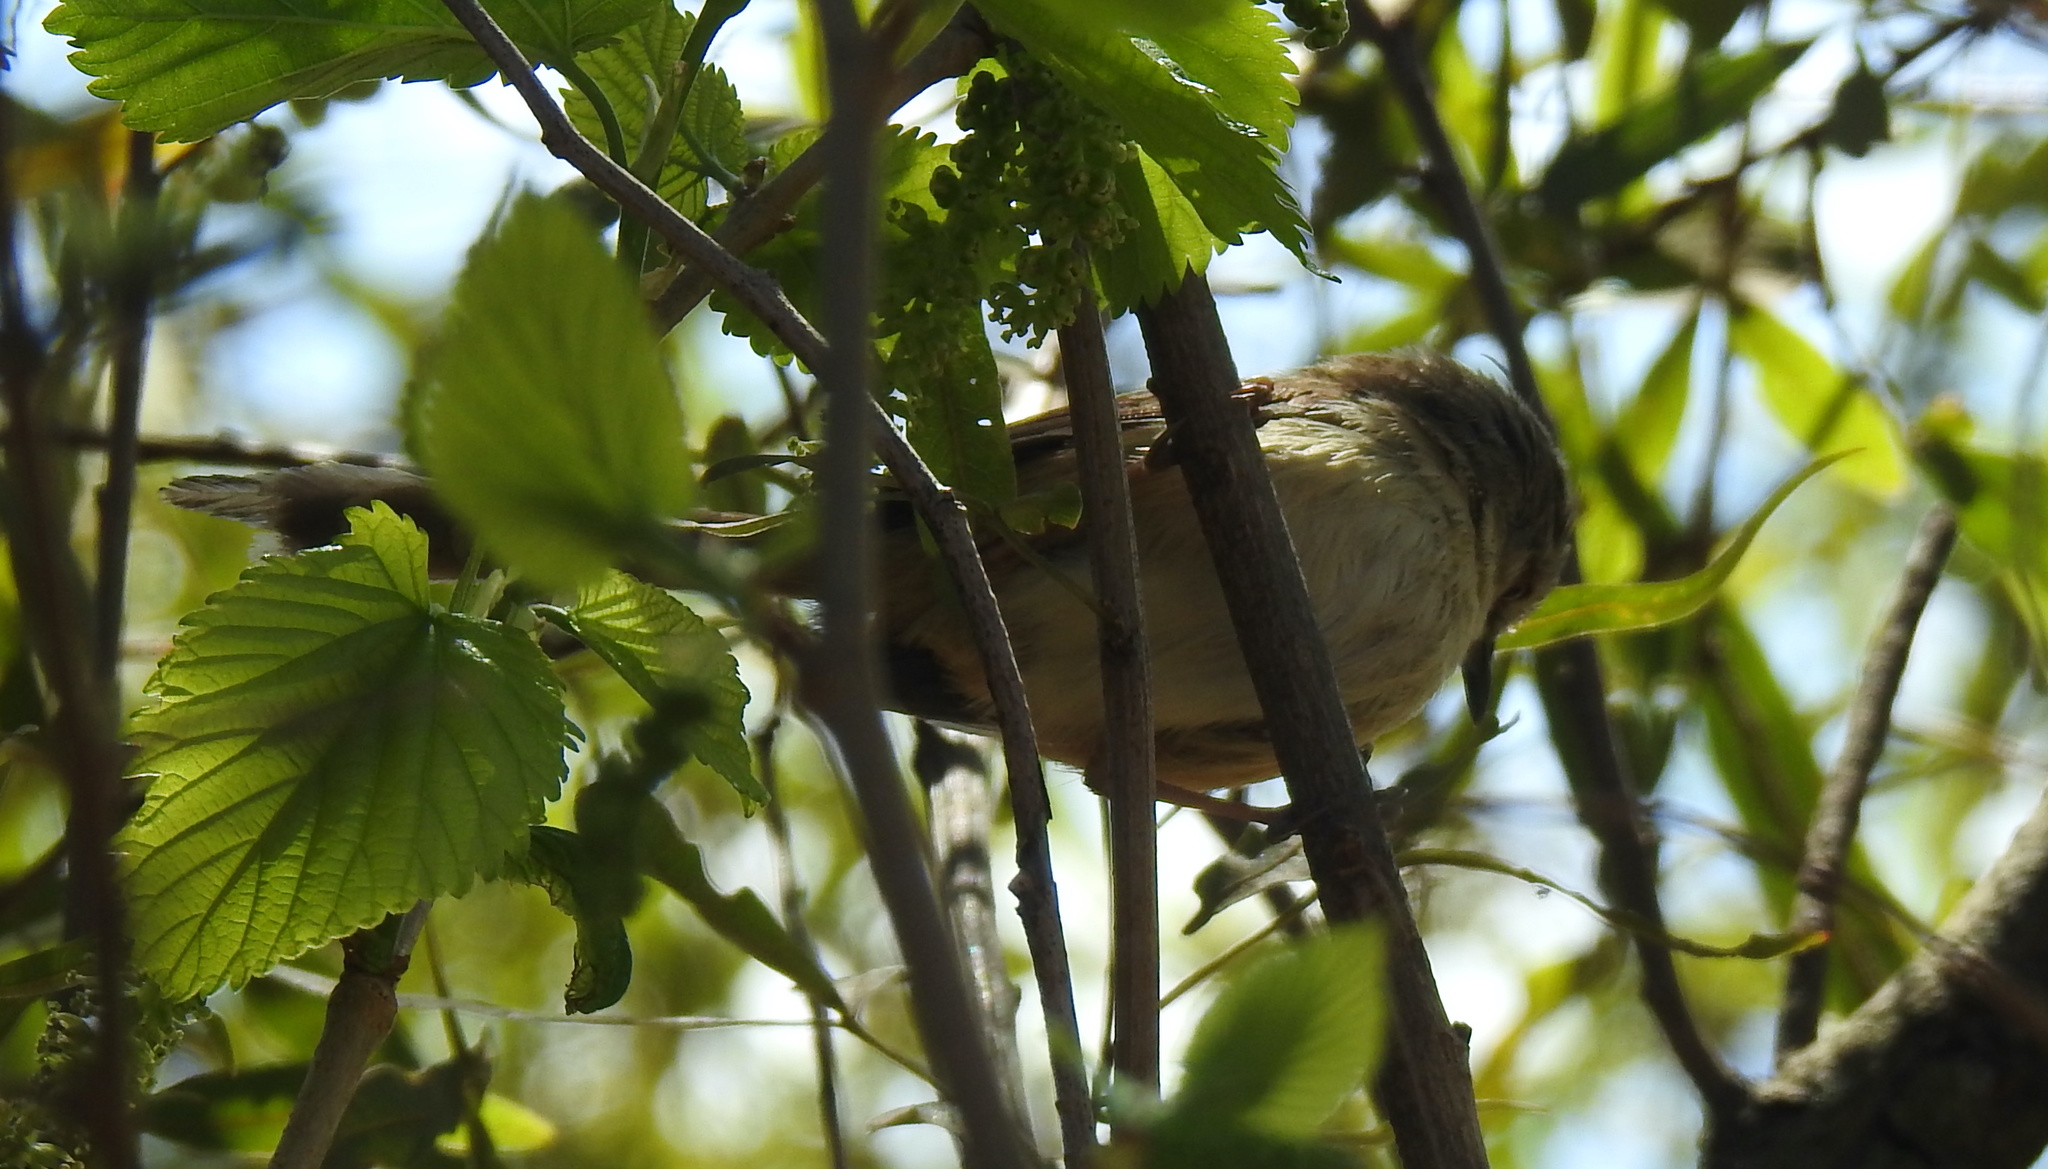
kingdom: Animalia
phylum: Chordata
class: Aves
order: Passeriformes
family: Cisticolidae
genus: Prinia
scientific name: Prinia subflava
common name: Tawny-flanked prinia
